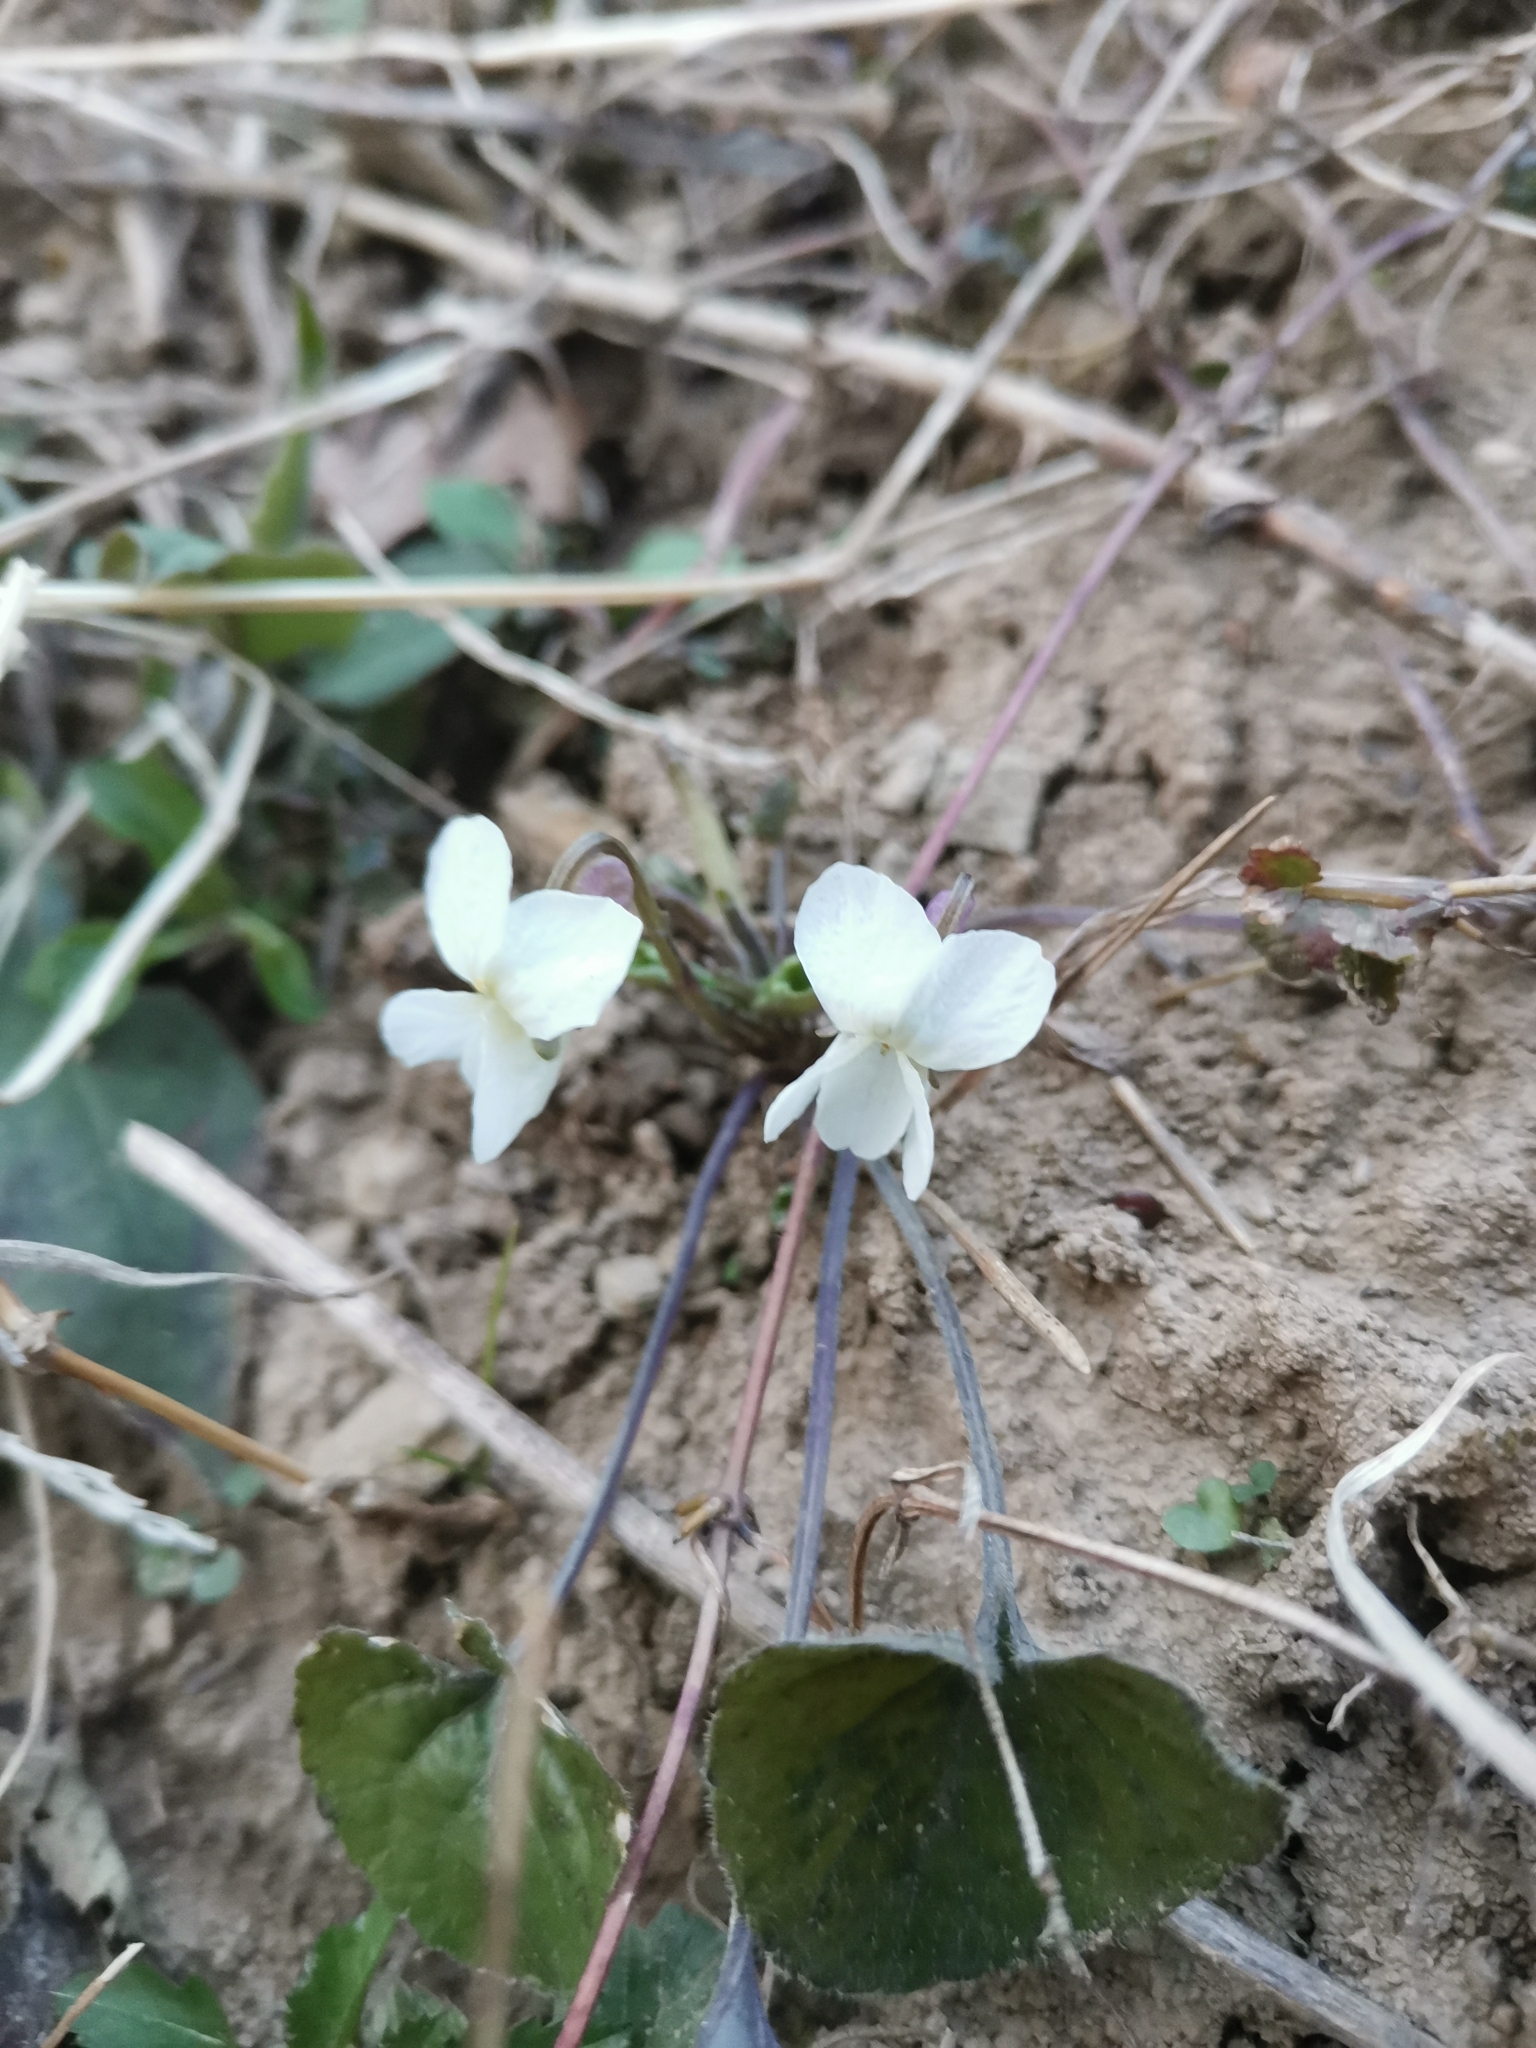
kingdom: Plantae
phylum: Tracheophyta
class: Magnoliopsida
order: Malpighiales
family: Violaceae
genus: Viola
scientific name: Viola alba
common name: White violet
